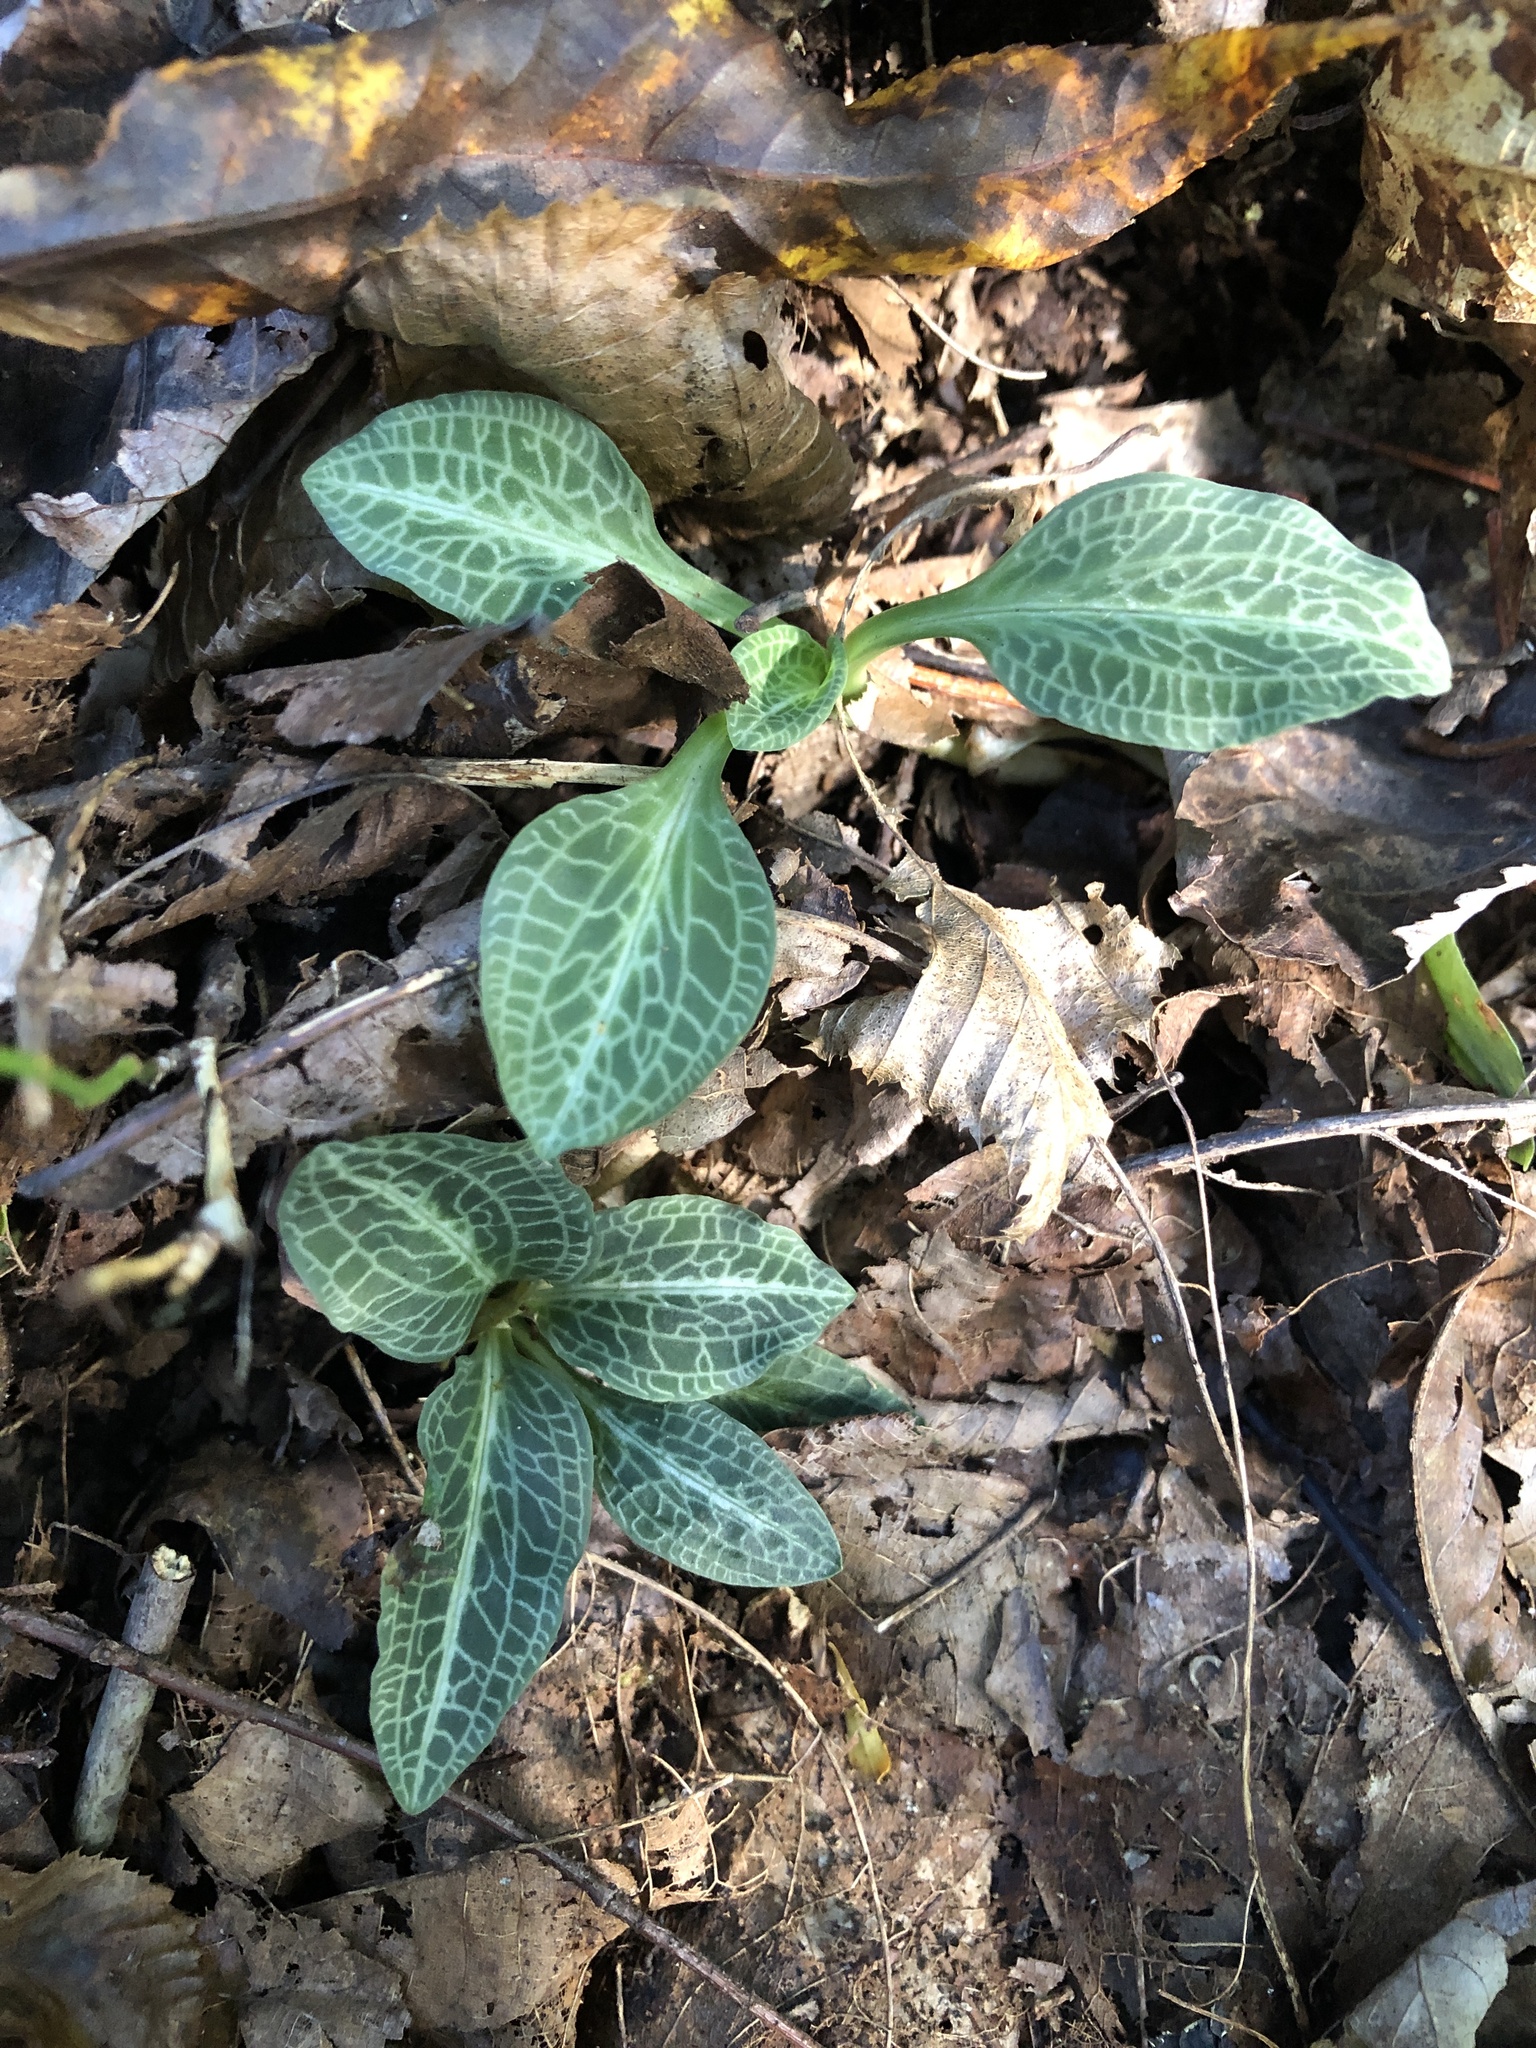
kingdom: Plantae
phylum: Tracheophyta
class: Liliopsida
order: Asparagales
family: Orchidaceae
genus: Goodyera
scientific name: Goodyera pubescens
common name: Downy rattlesnake-plantain
